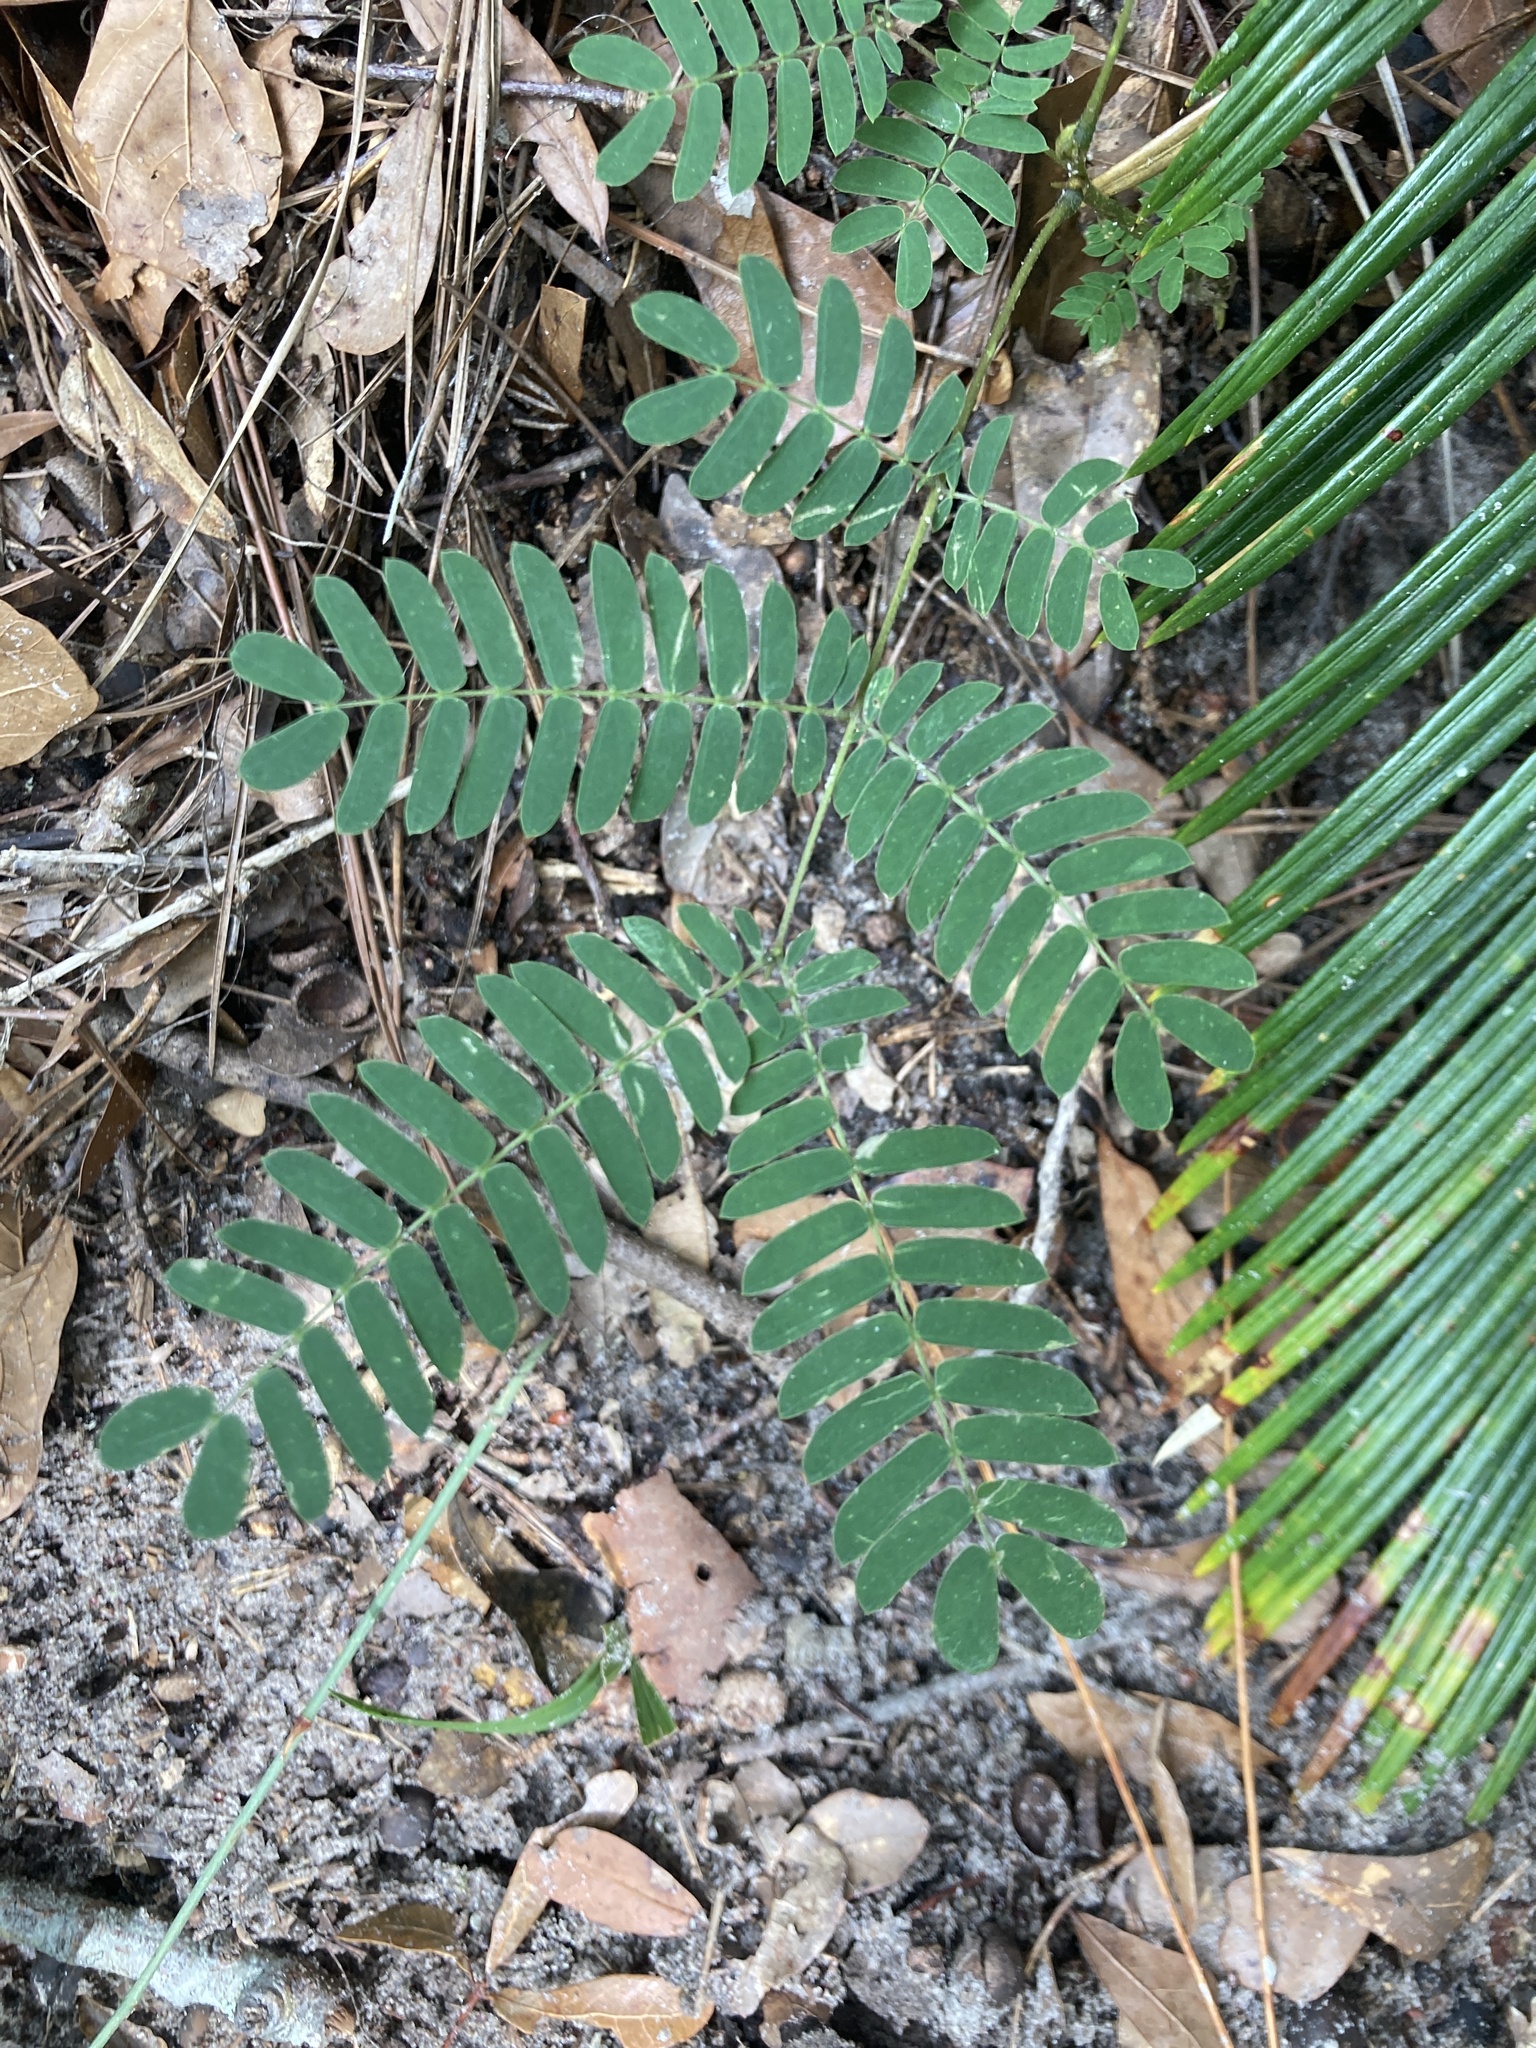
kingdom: Plantae
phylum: Tracheophyta
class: Magnoliopsida
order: Fabales
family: Fabaceae
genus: Albizia
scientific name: Albizia julibrissin
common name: Silktree
